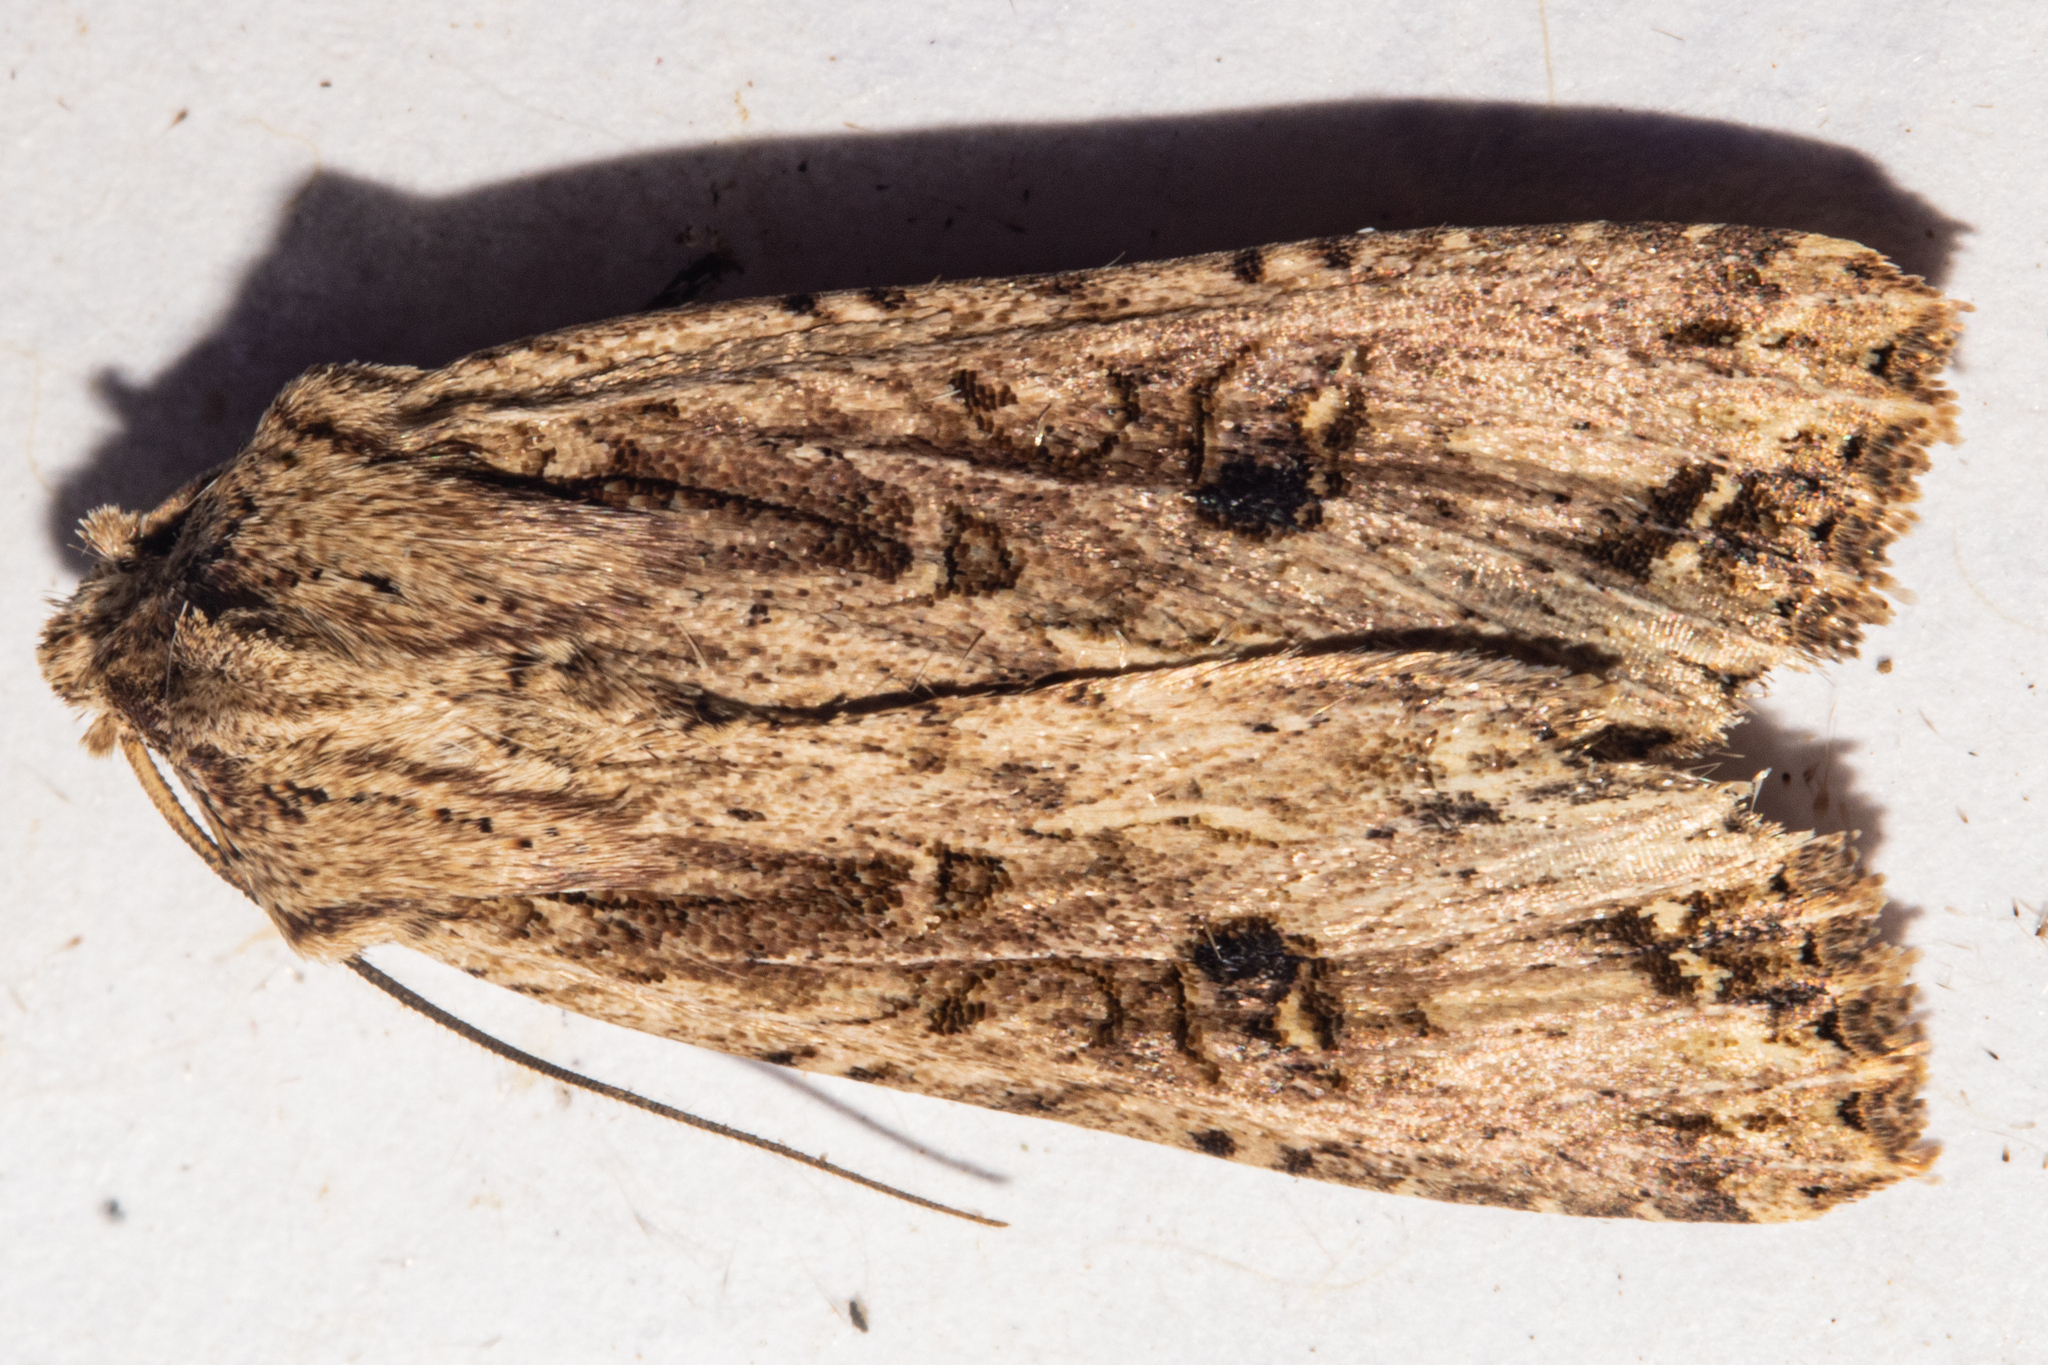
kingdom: Animalia
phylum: Arthropoda
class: Insecta
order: Lepidoptera
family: Noctuidae
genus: Ichneutica
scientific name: Ichneutica lignana
